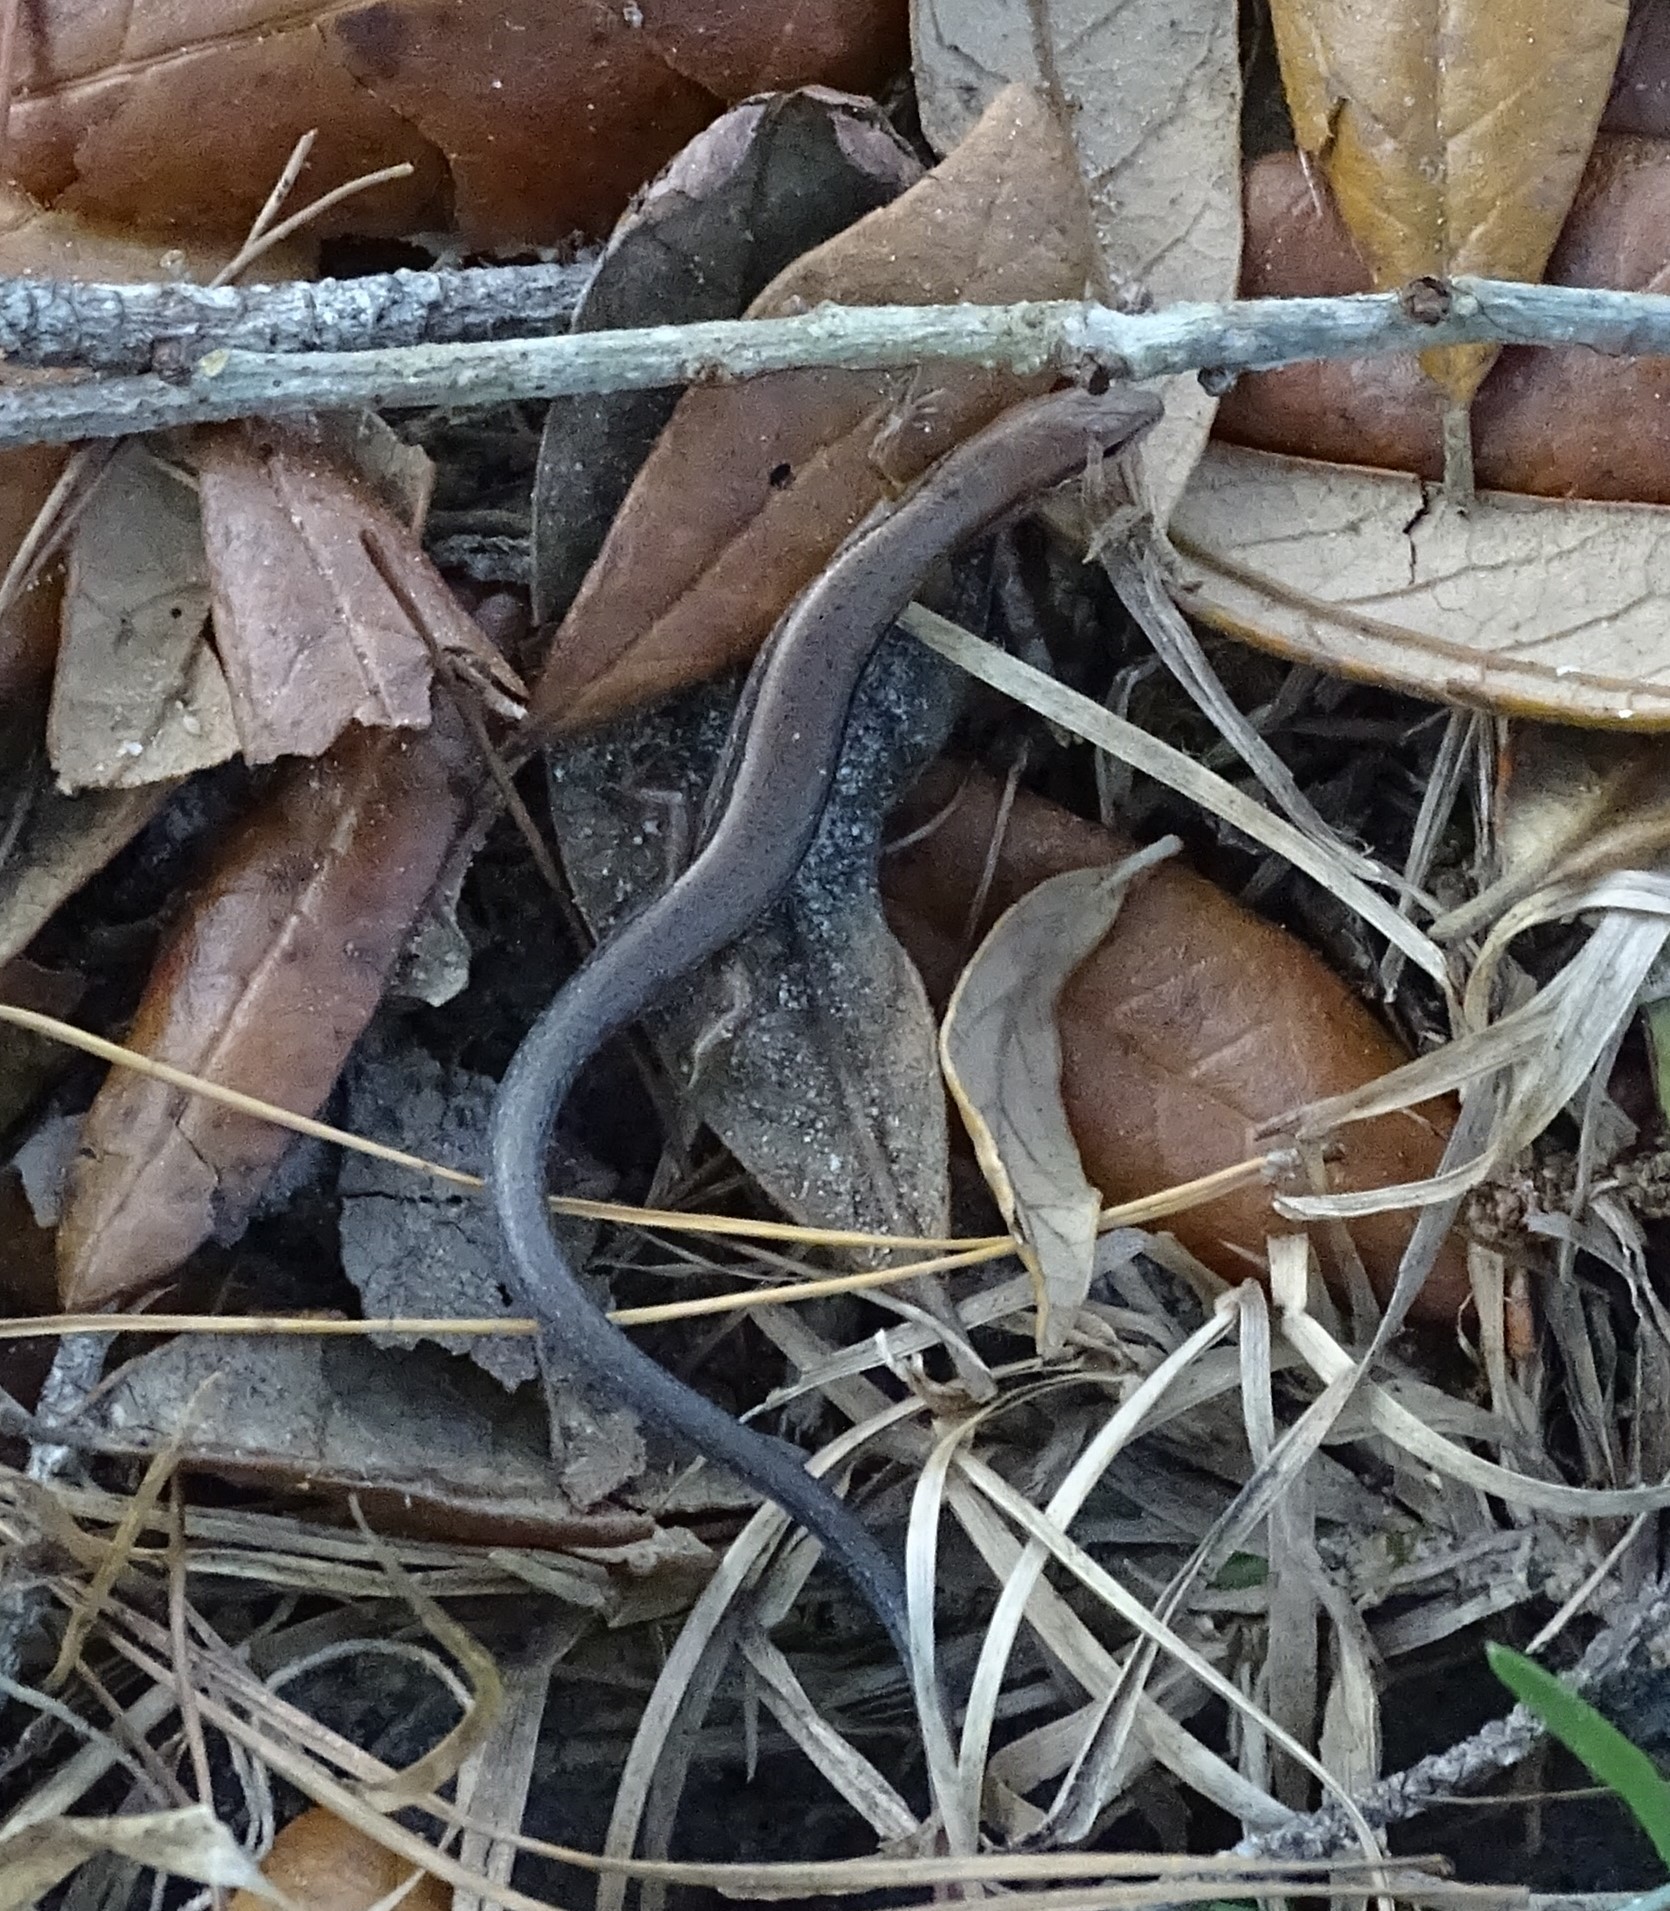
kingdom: Animalia
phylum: Chordata
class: Squamata
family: Scincidae
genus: Scincella
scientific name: Scincella lateralis
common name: Ground skink
